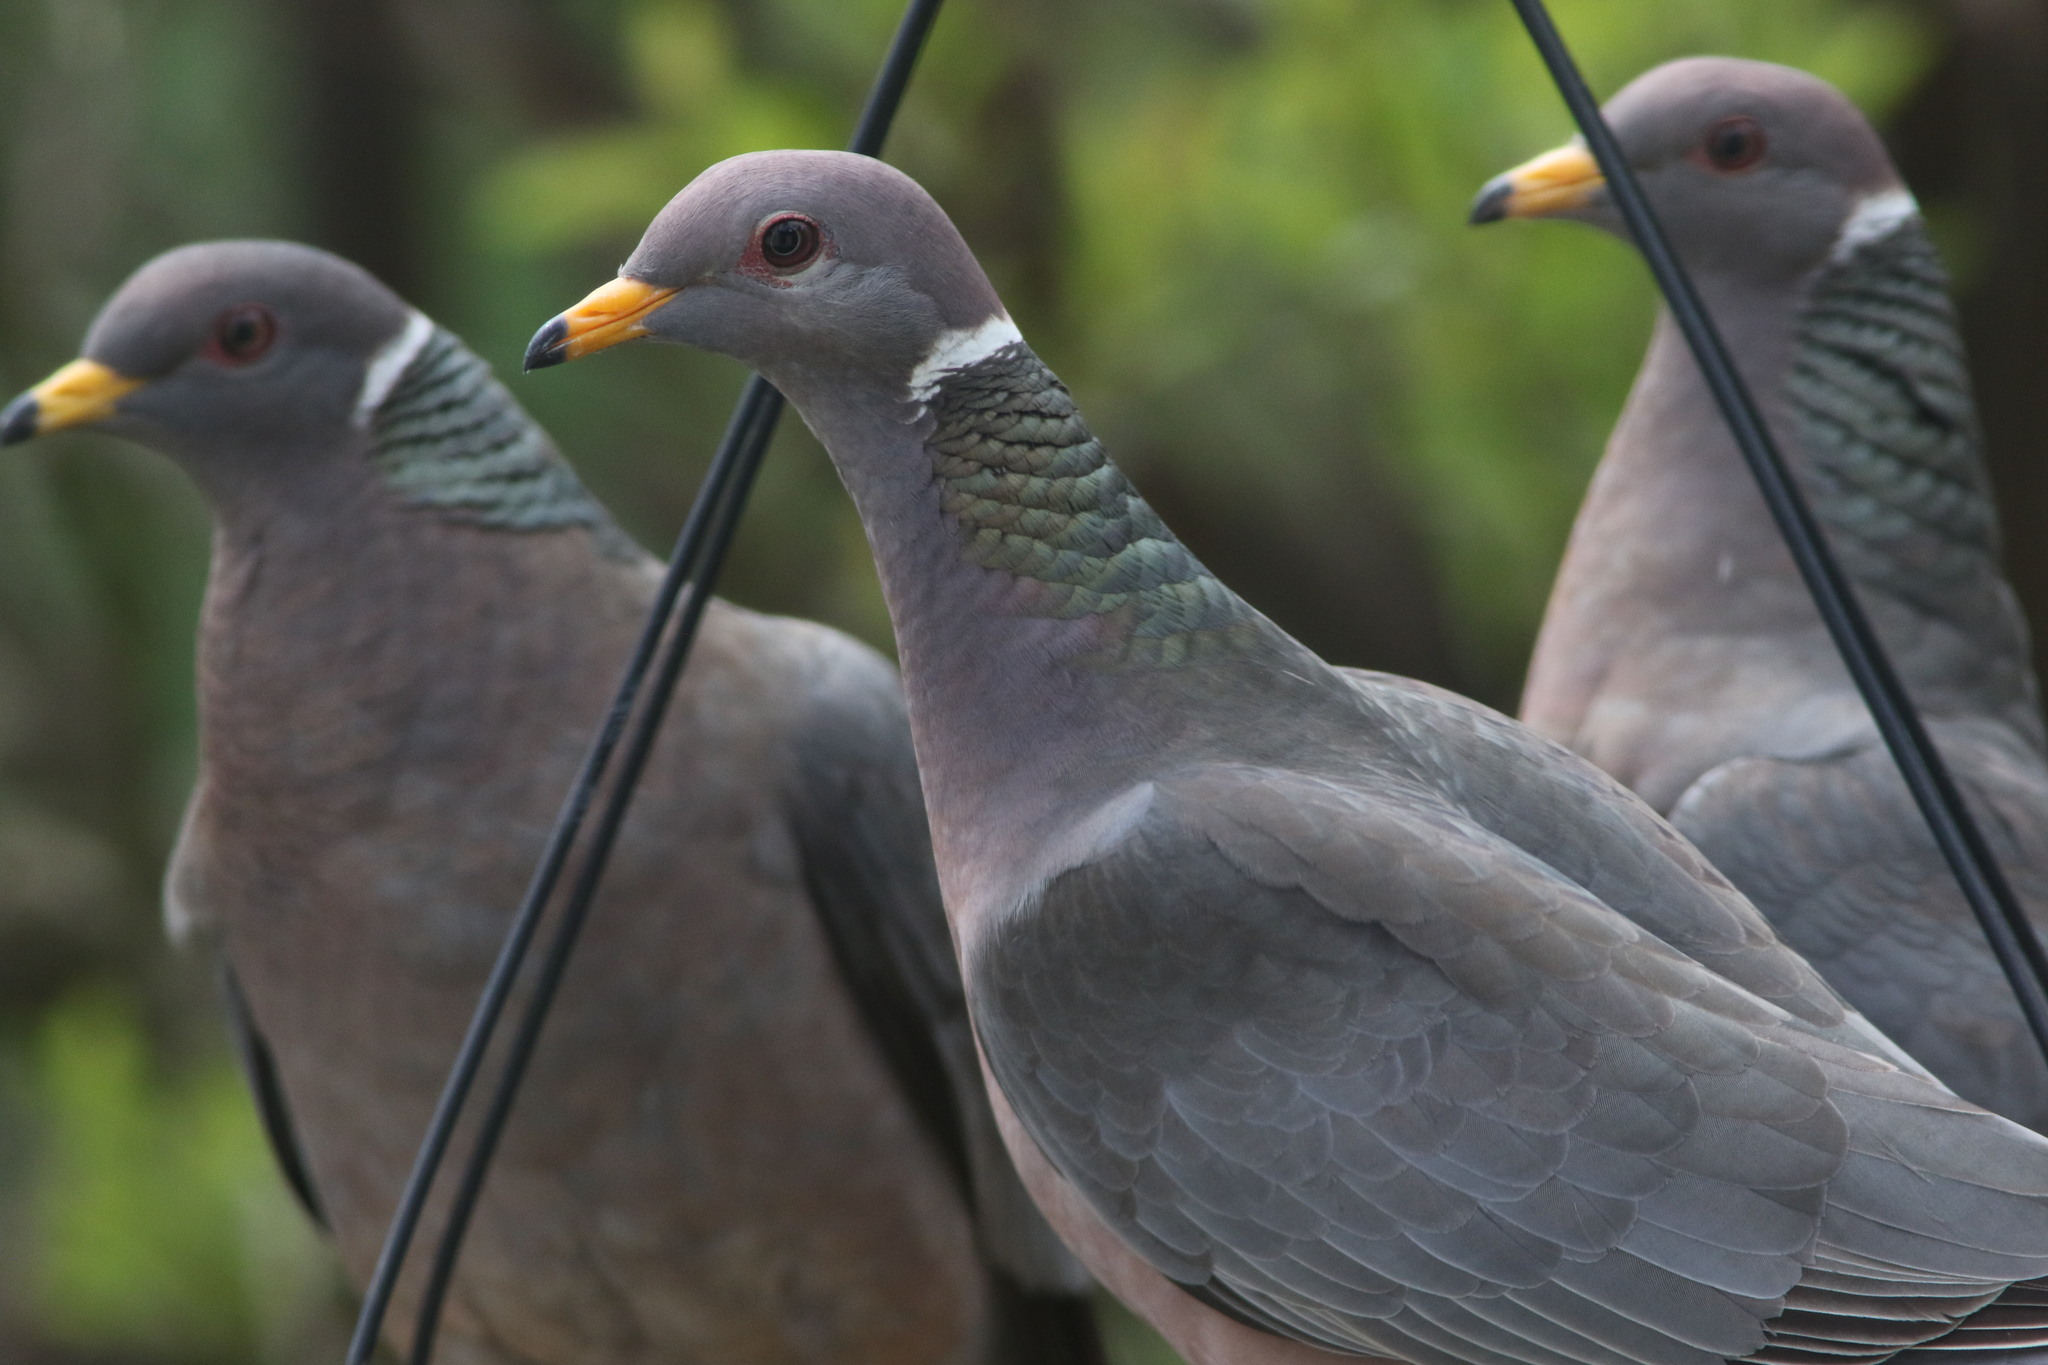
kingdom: Animalia
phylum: Chordata
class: Aves
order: Columbiformes
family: Columbidae
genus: Patagioenas
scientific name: Patagioenas fasciata
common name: Band-tailed pigeon
